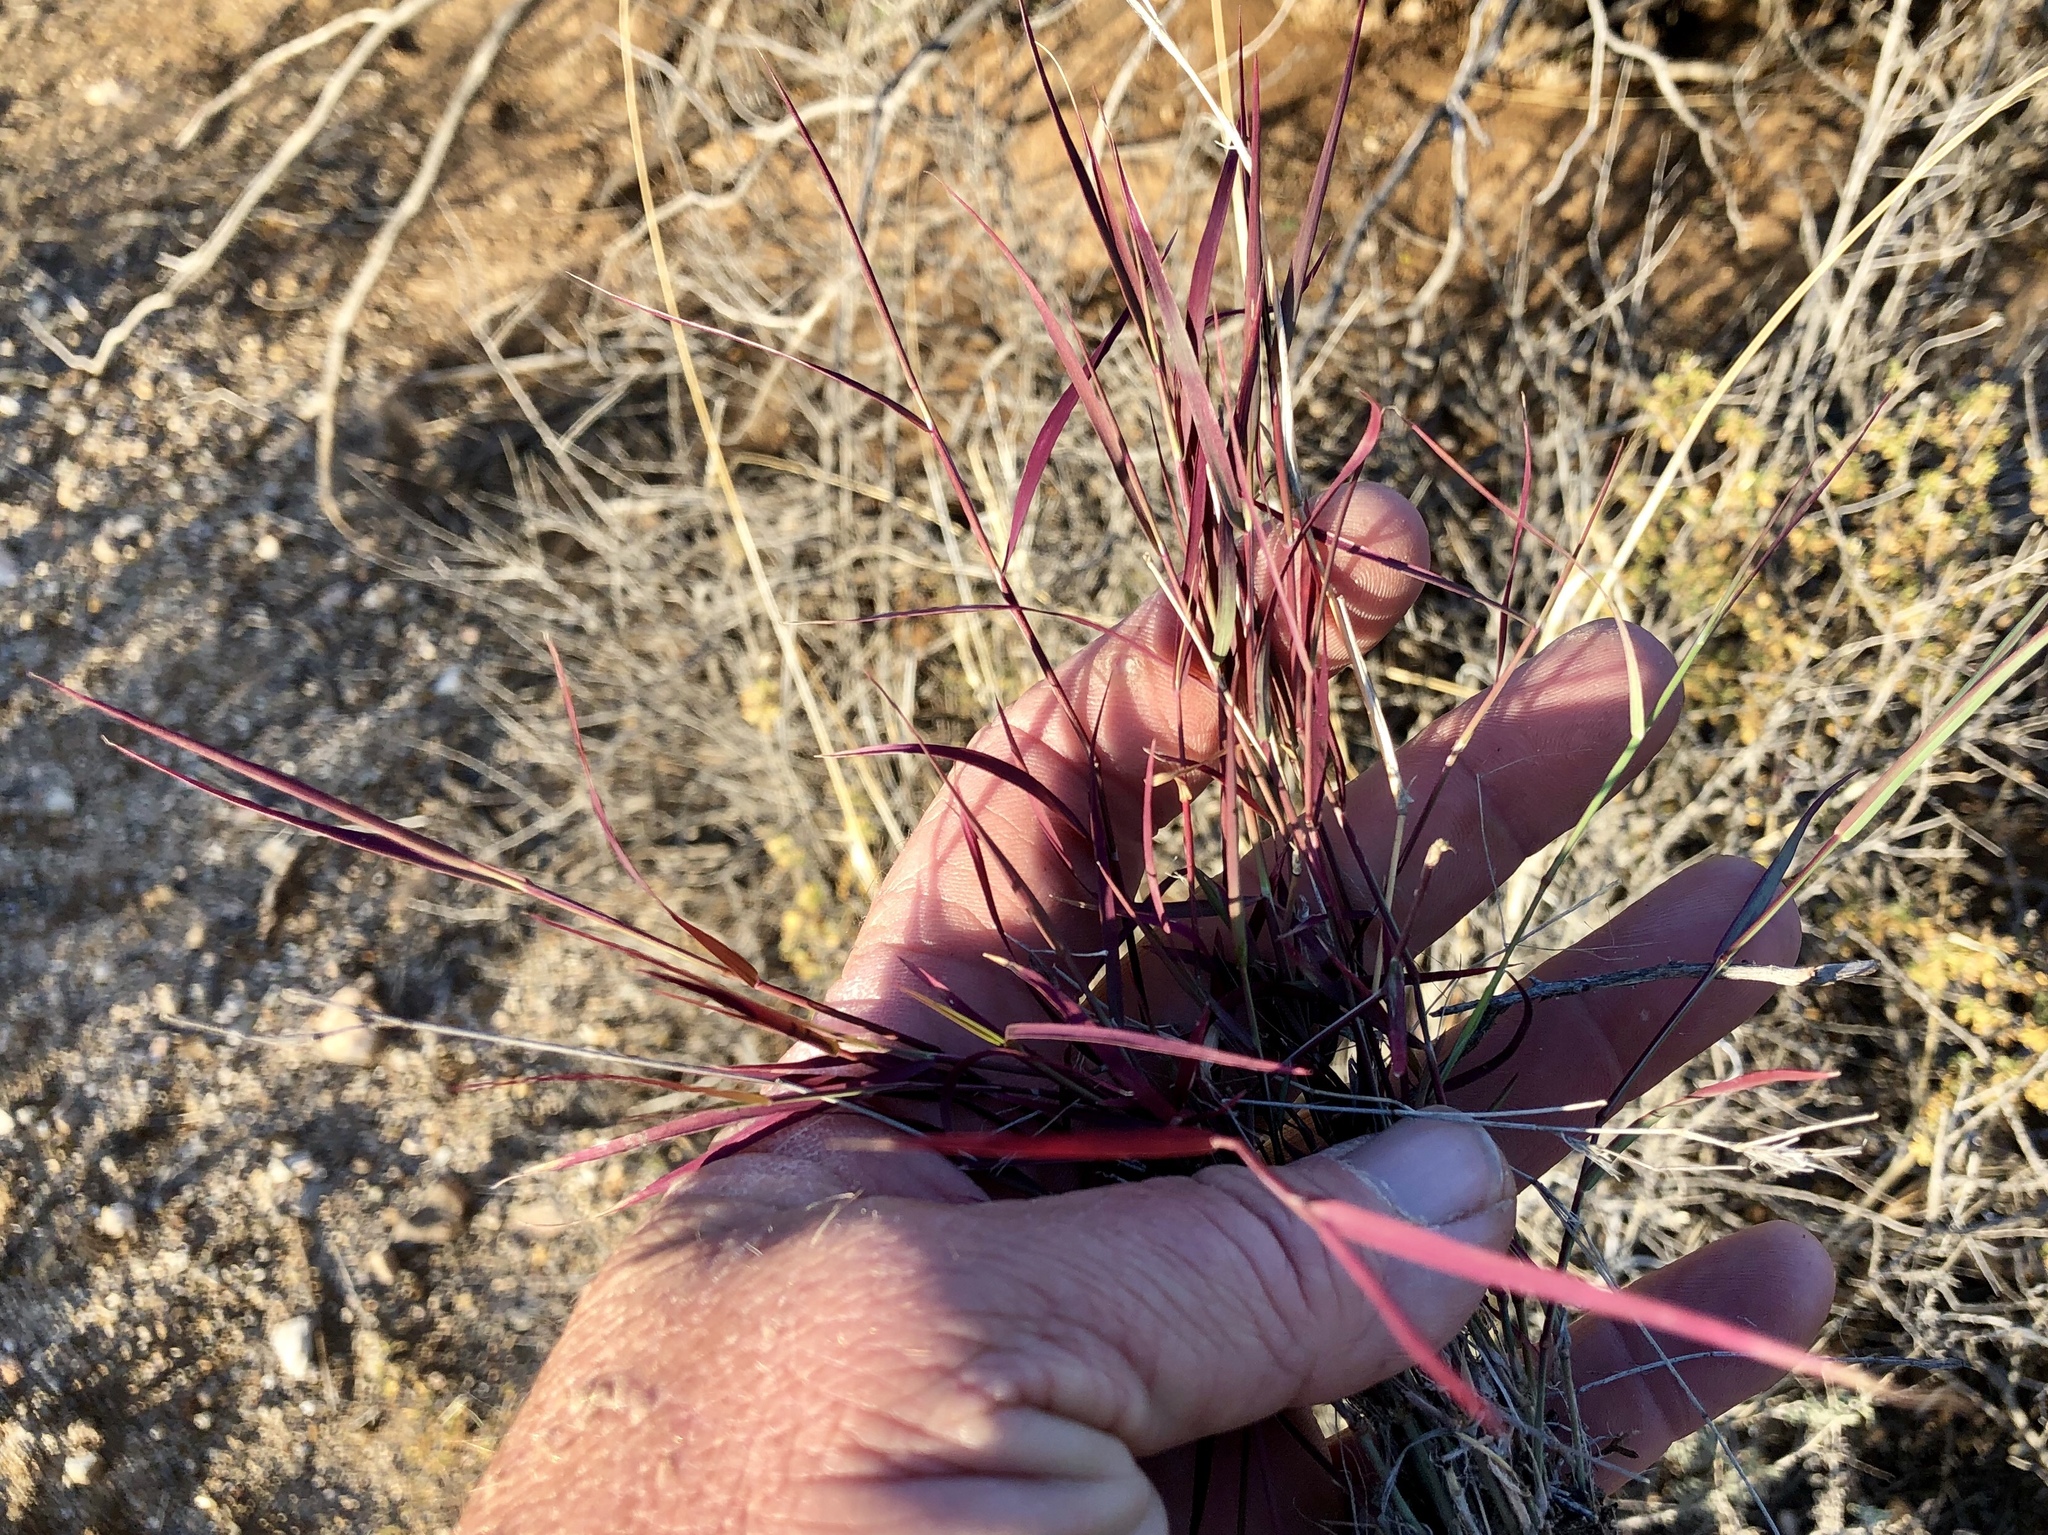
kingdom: Plantae
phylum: Tracheophyta
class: Liliopsida
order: Poales
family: Poaceae
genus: Muhlenbergia
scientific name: Muhlenbergia porteri
